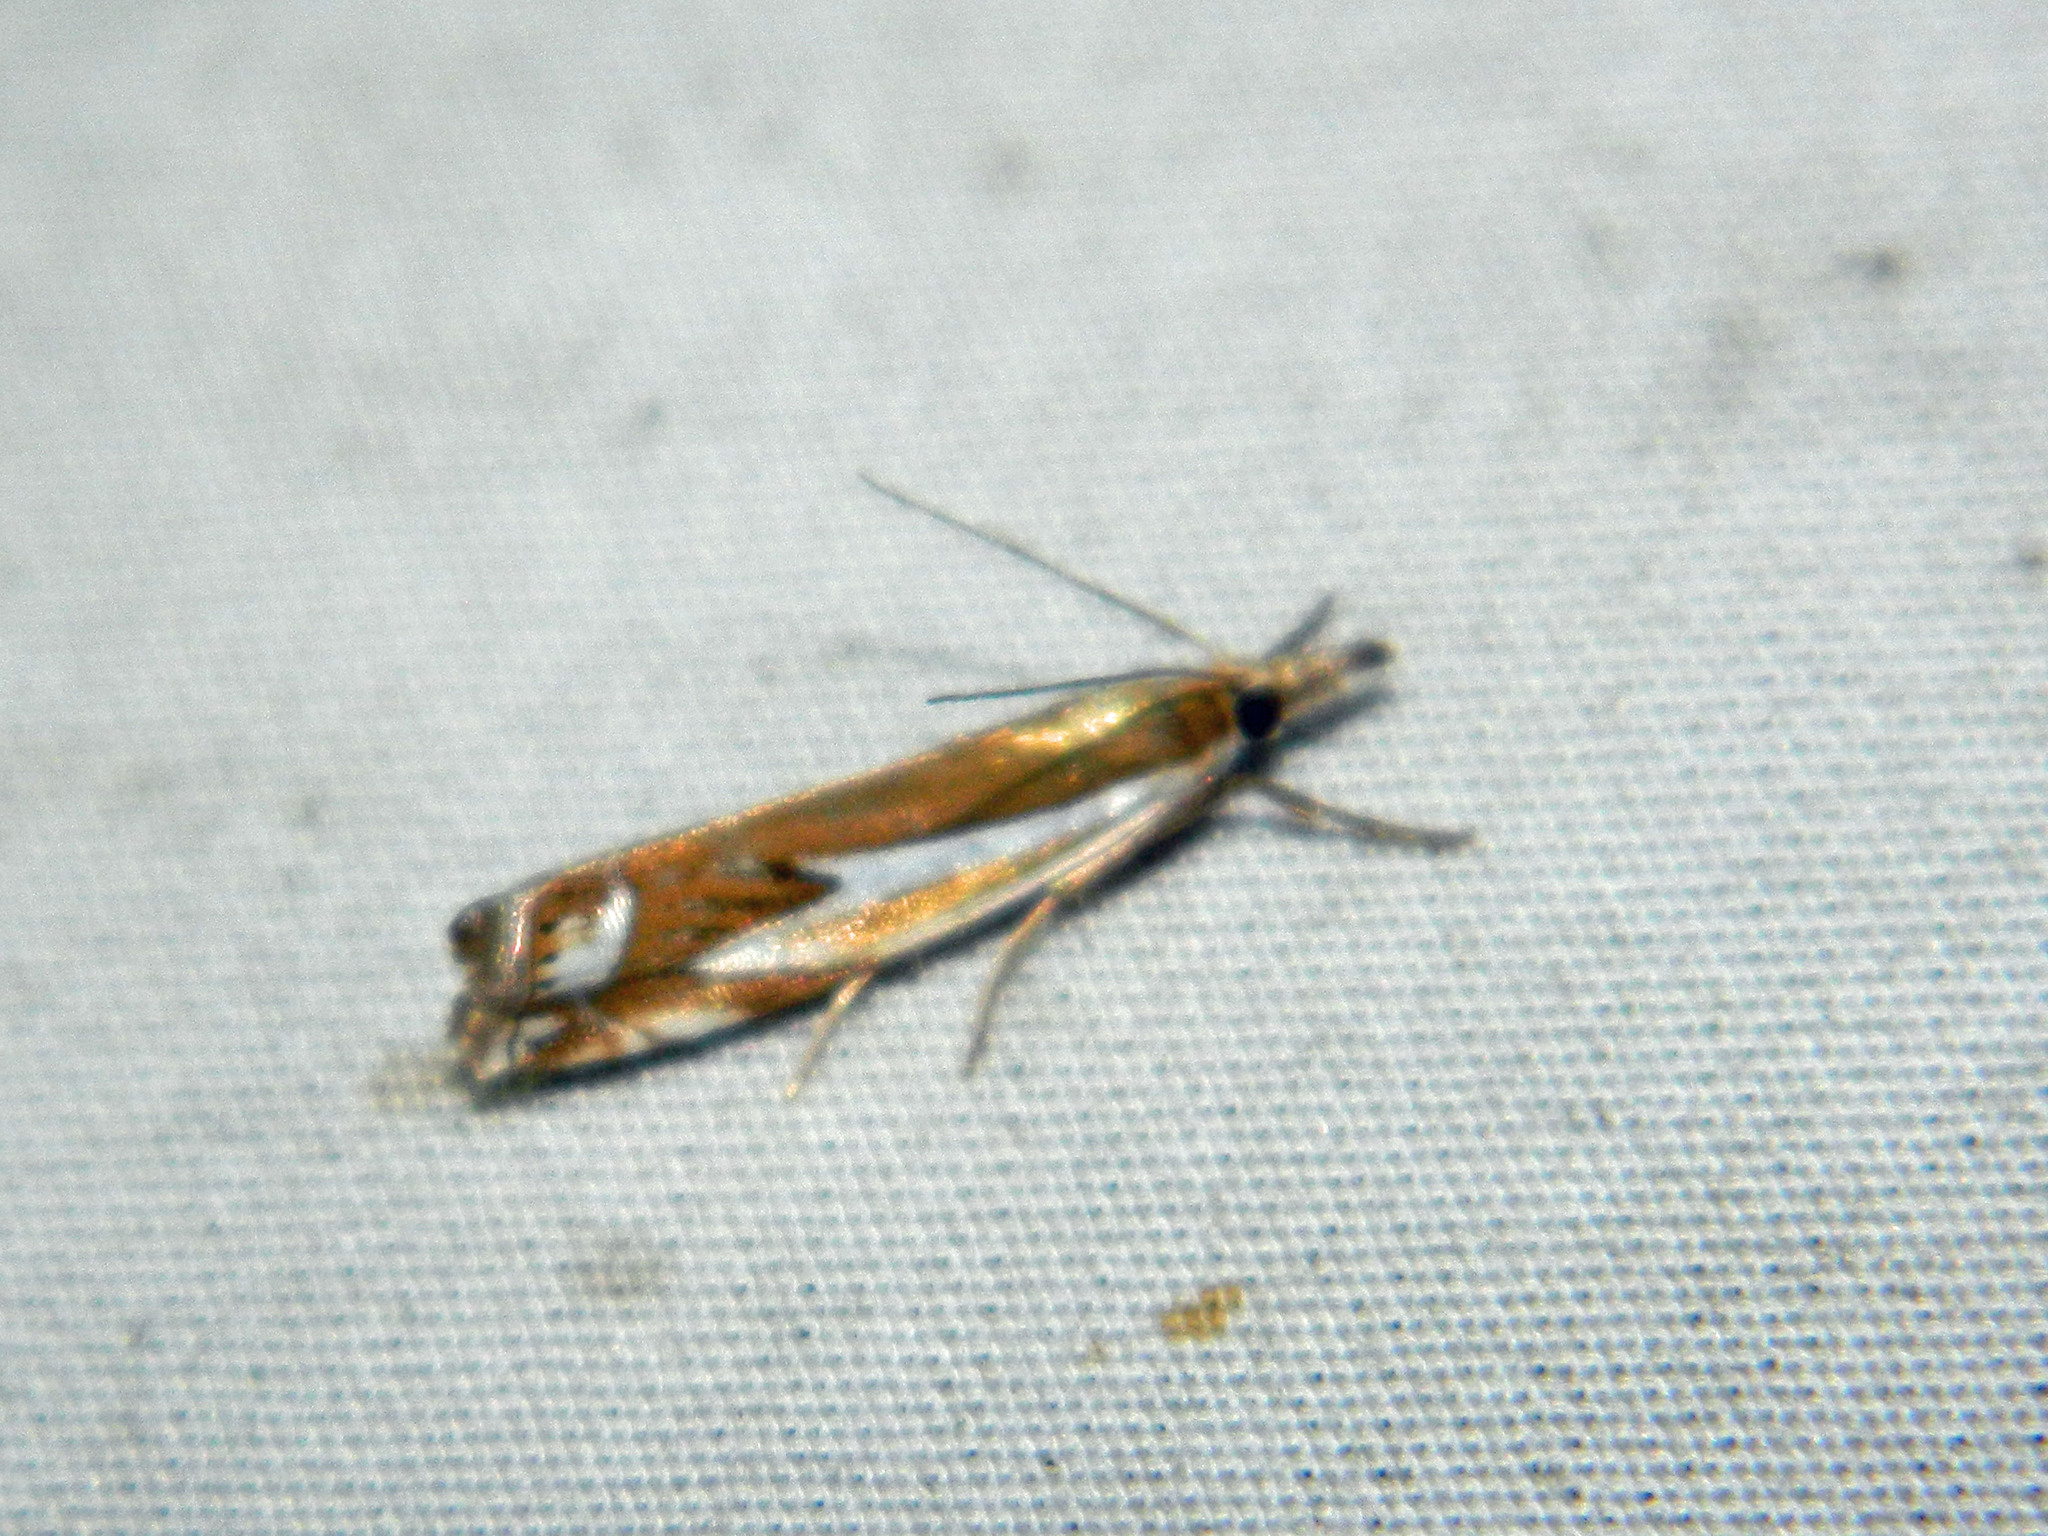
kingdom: Animalia
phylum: Arthropoda
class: Insecta
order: Lepidoptera
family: Crambidae
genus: Crambus
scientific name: Crambus bidens
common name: Forked grass-veneer
